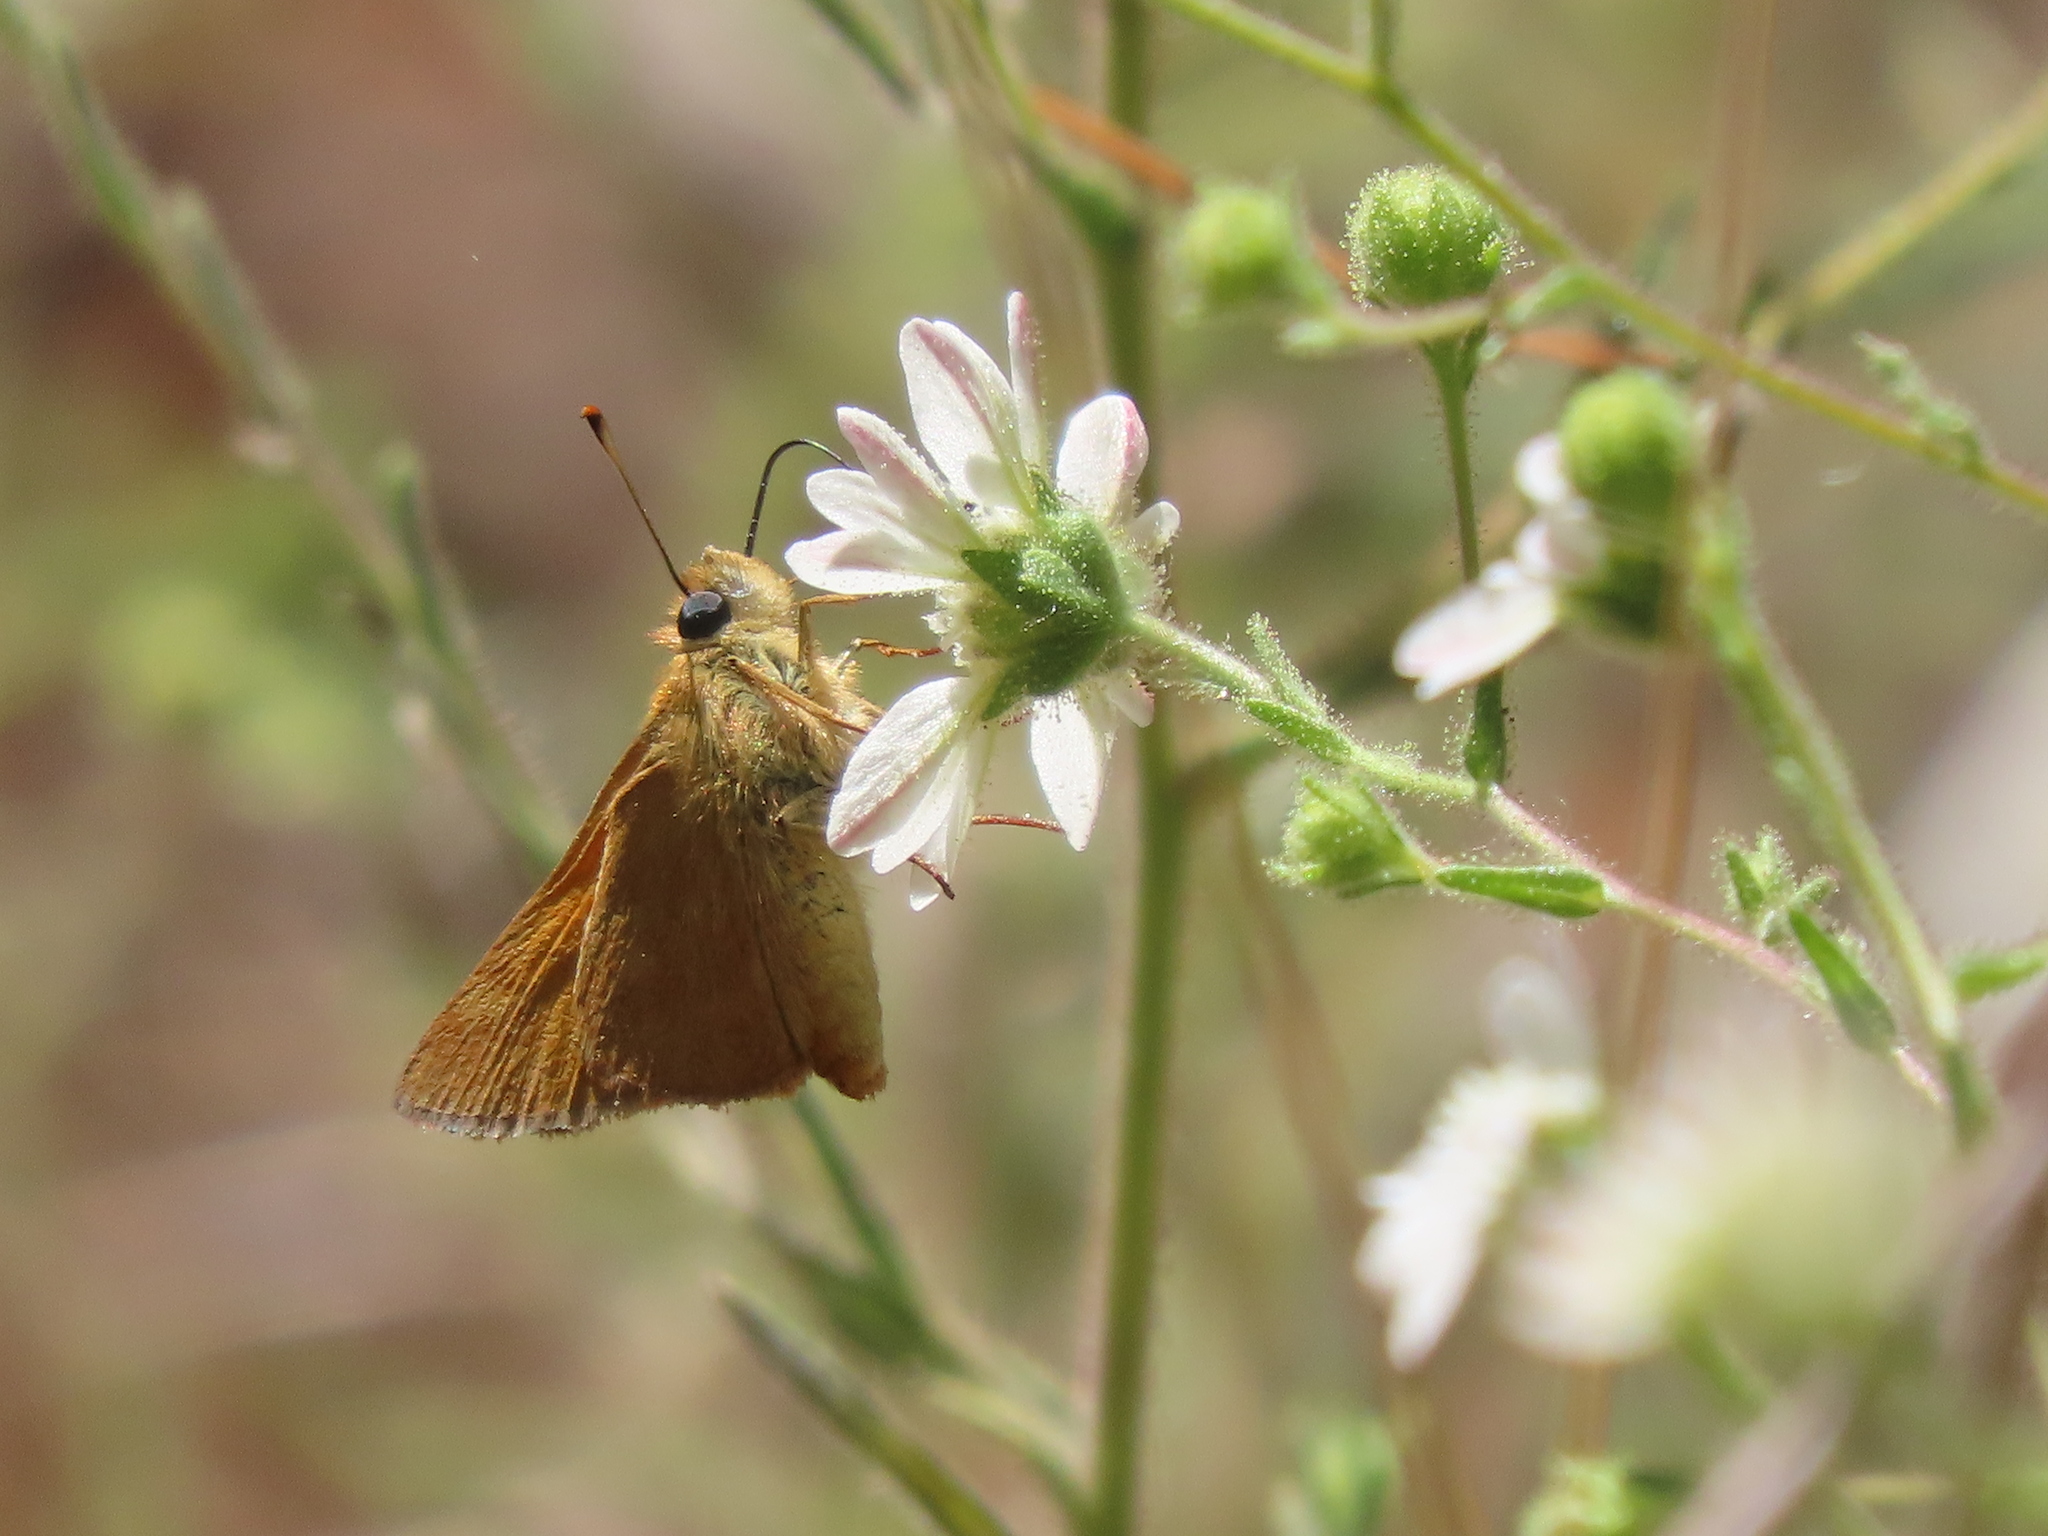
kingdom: Animalia
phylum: Arthropoda
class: Insecta
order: Lepidoptera
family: Hesperiidae
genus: Ochlodes
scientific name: Ochlodes sylvanoides
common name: Woodland skipper
